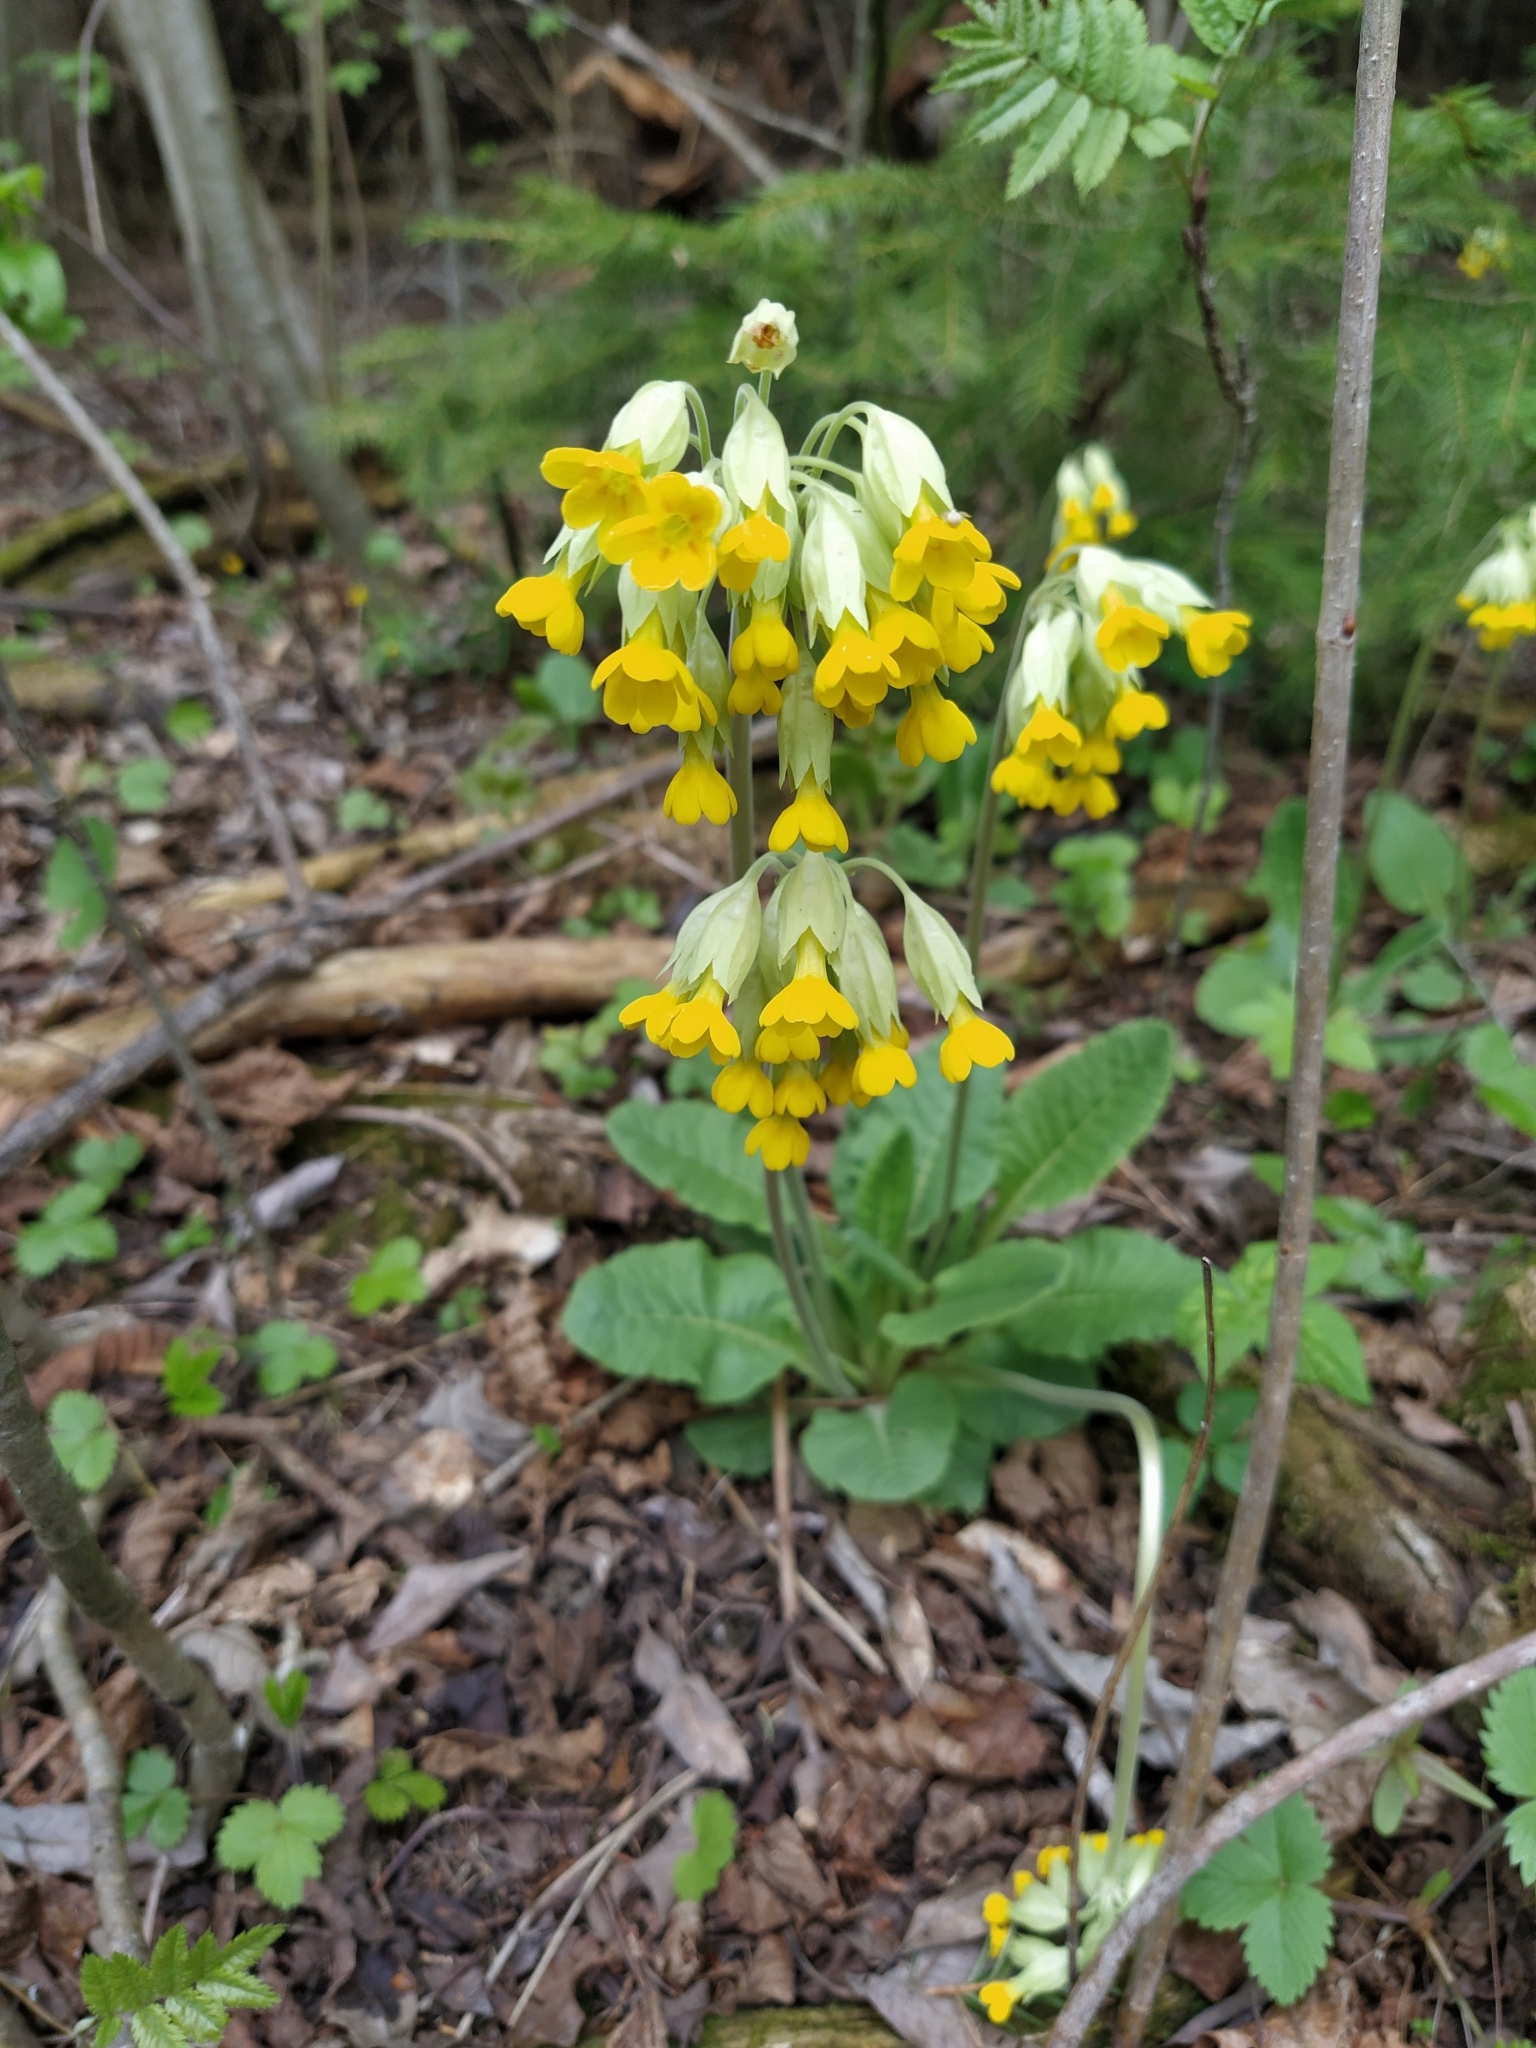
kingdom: Plantae
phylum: Tracheophyta
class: Magnoliopsida
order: Ericales
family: Primulaceae
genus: Primula
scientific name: Primula veris
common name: Cowslip
